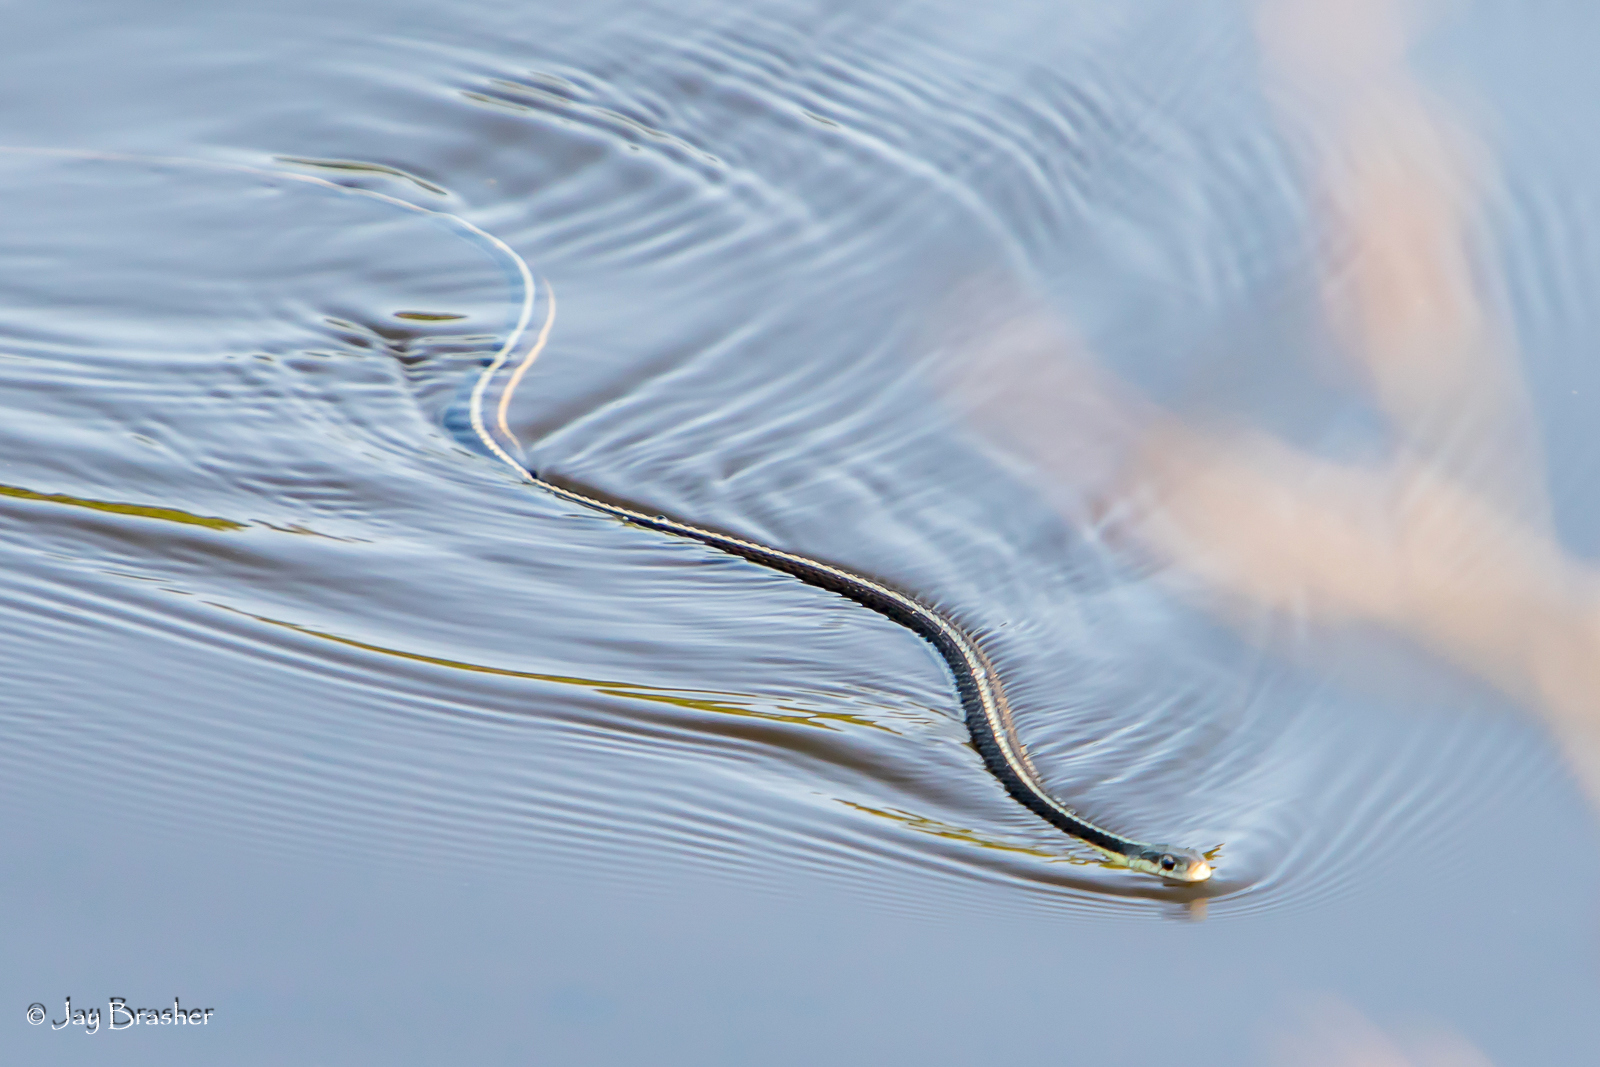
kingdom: Animalia
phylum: Chordata
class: Squamata
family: Colubridae
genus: Thamnophis
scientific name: Thamnophis sirtalis
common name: Common garter snake
